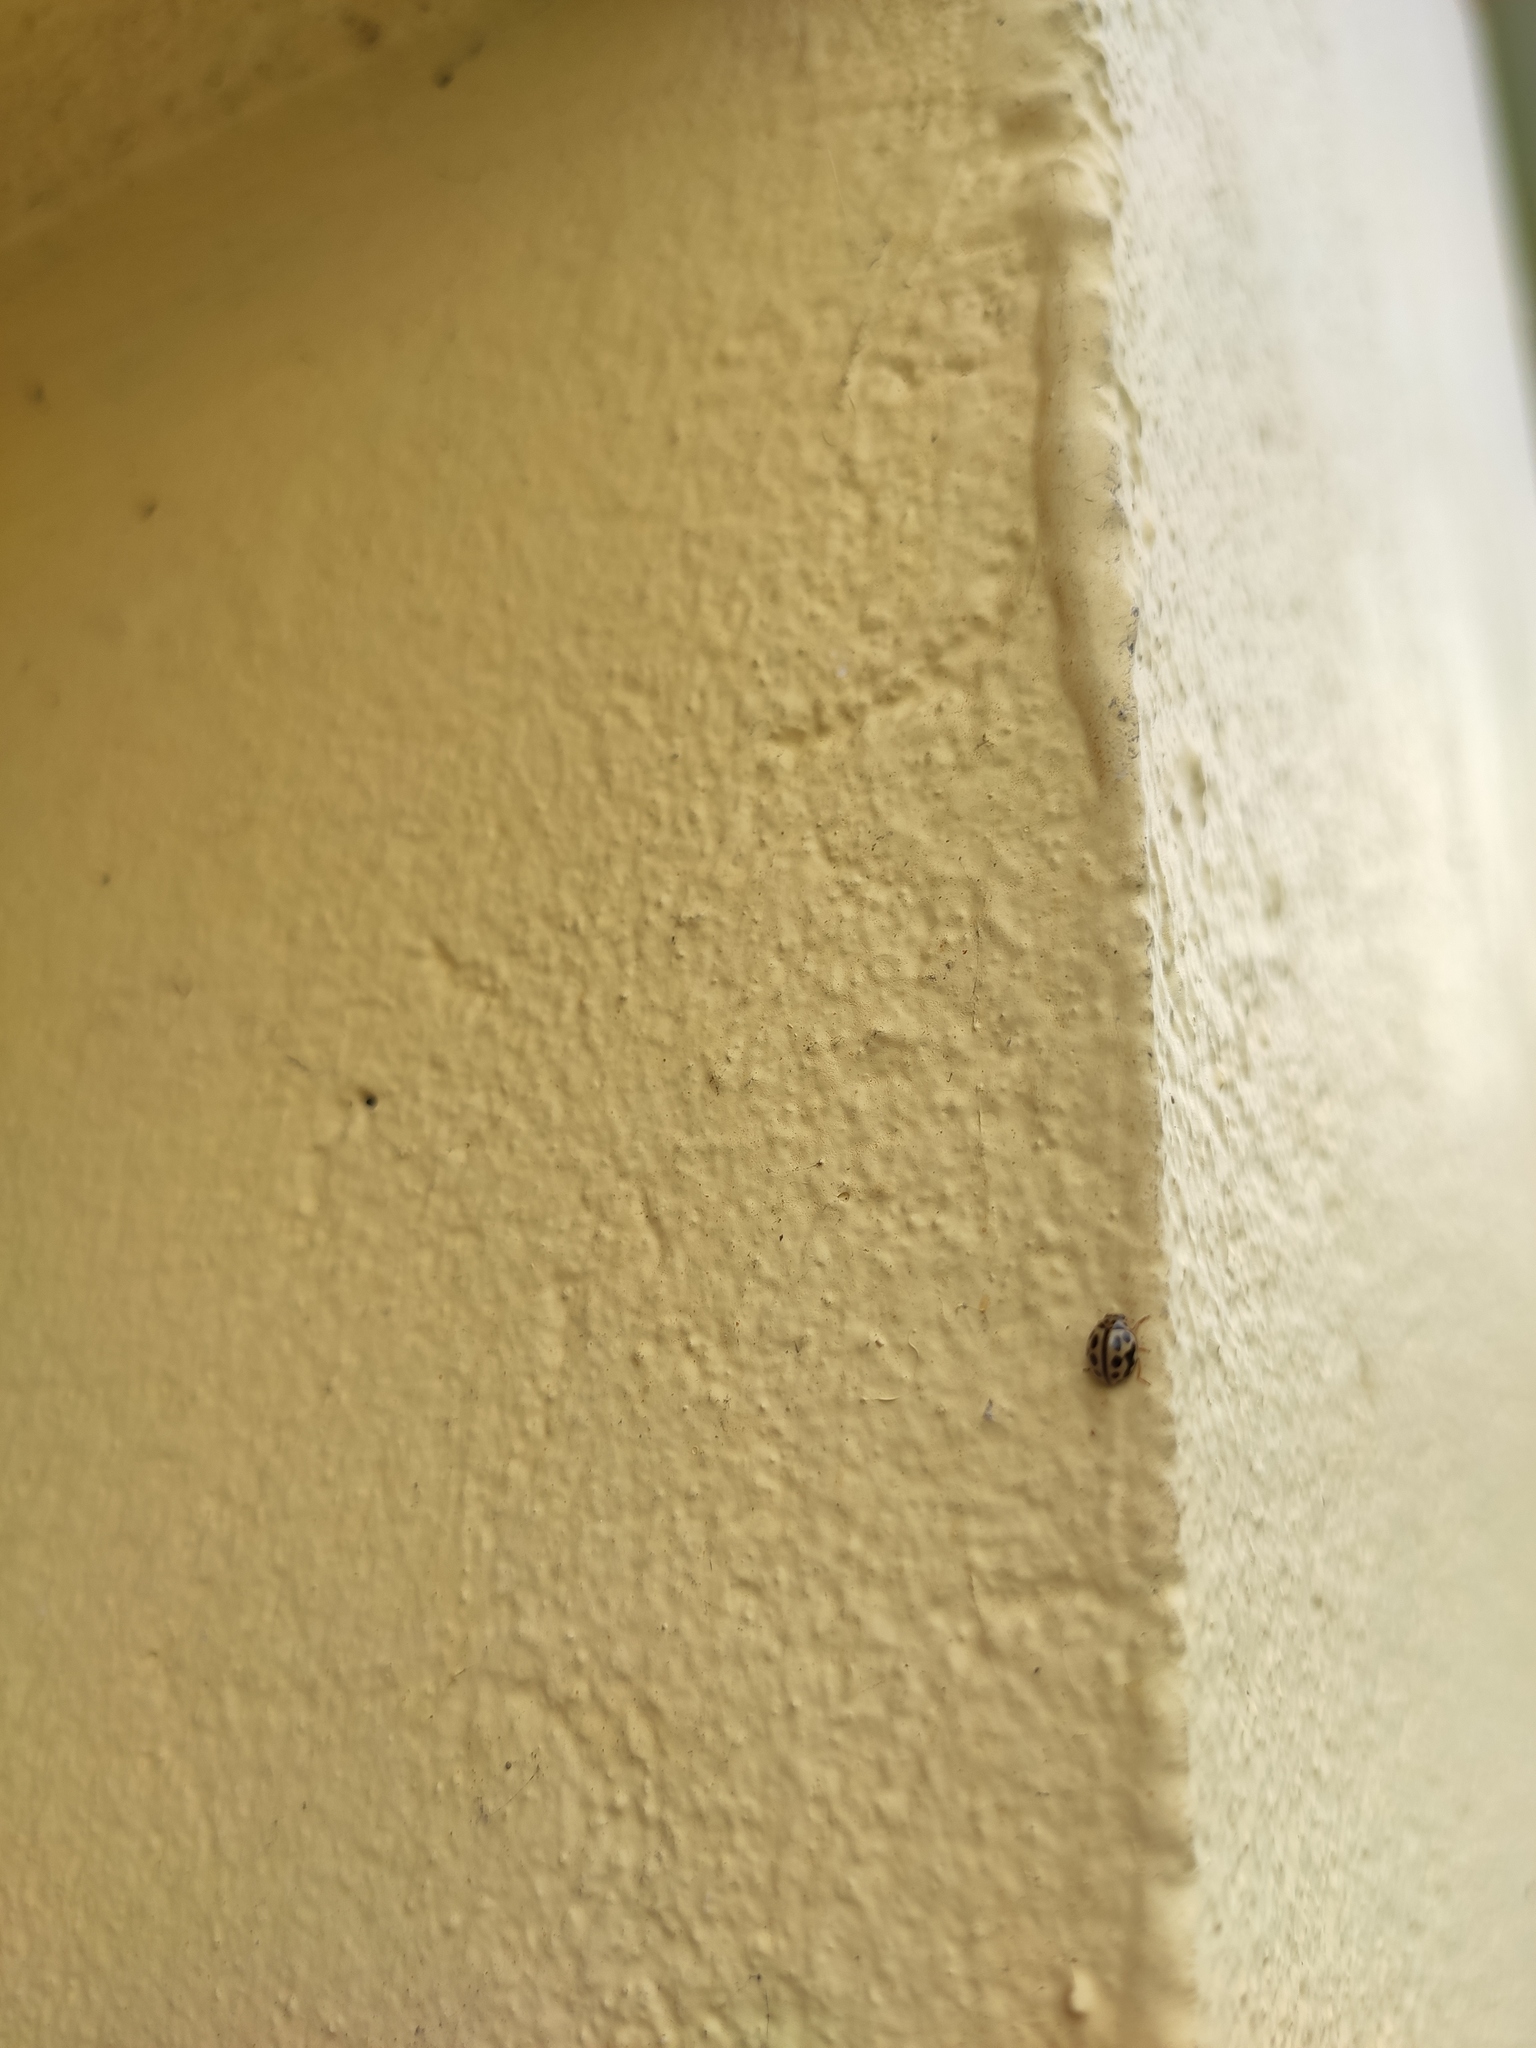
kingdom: Animalia
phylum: Arthropoda
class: Insecta
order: Coleoptera
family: Coccinellidae
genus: Tytthaspis
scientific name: Tytthaspis sedecimpunctata
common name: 16-spot ladybird
